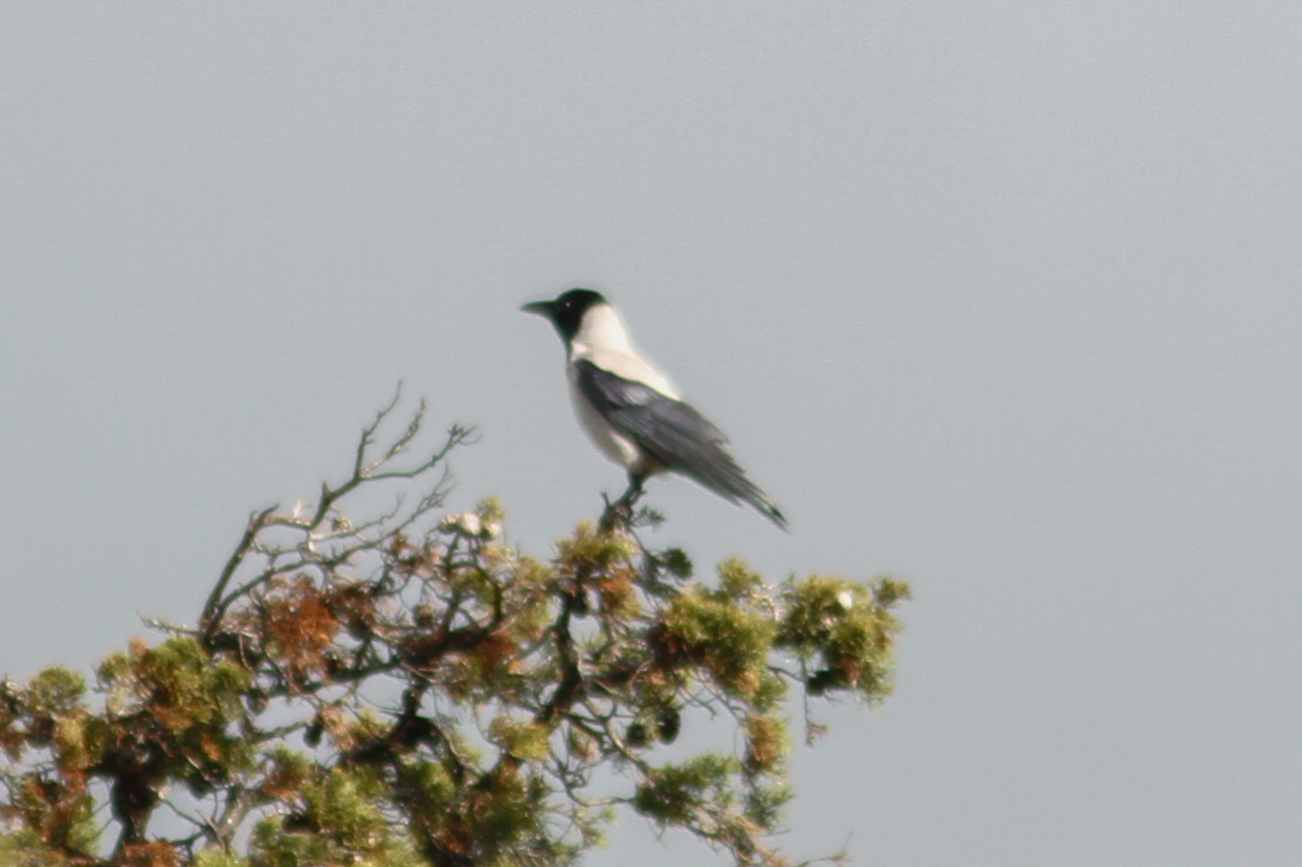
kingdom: Animalia
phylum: Chordata
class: Aves
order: Passeriformes
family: Corvidae
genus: Corvus
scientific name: Corvus cornix
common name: Hooded crow
